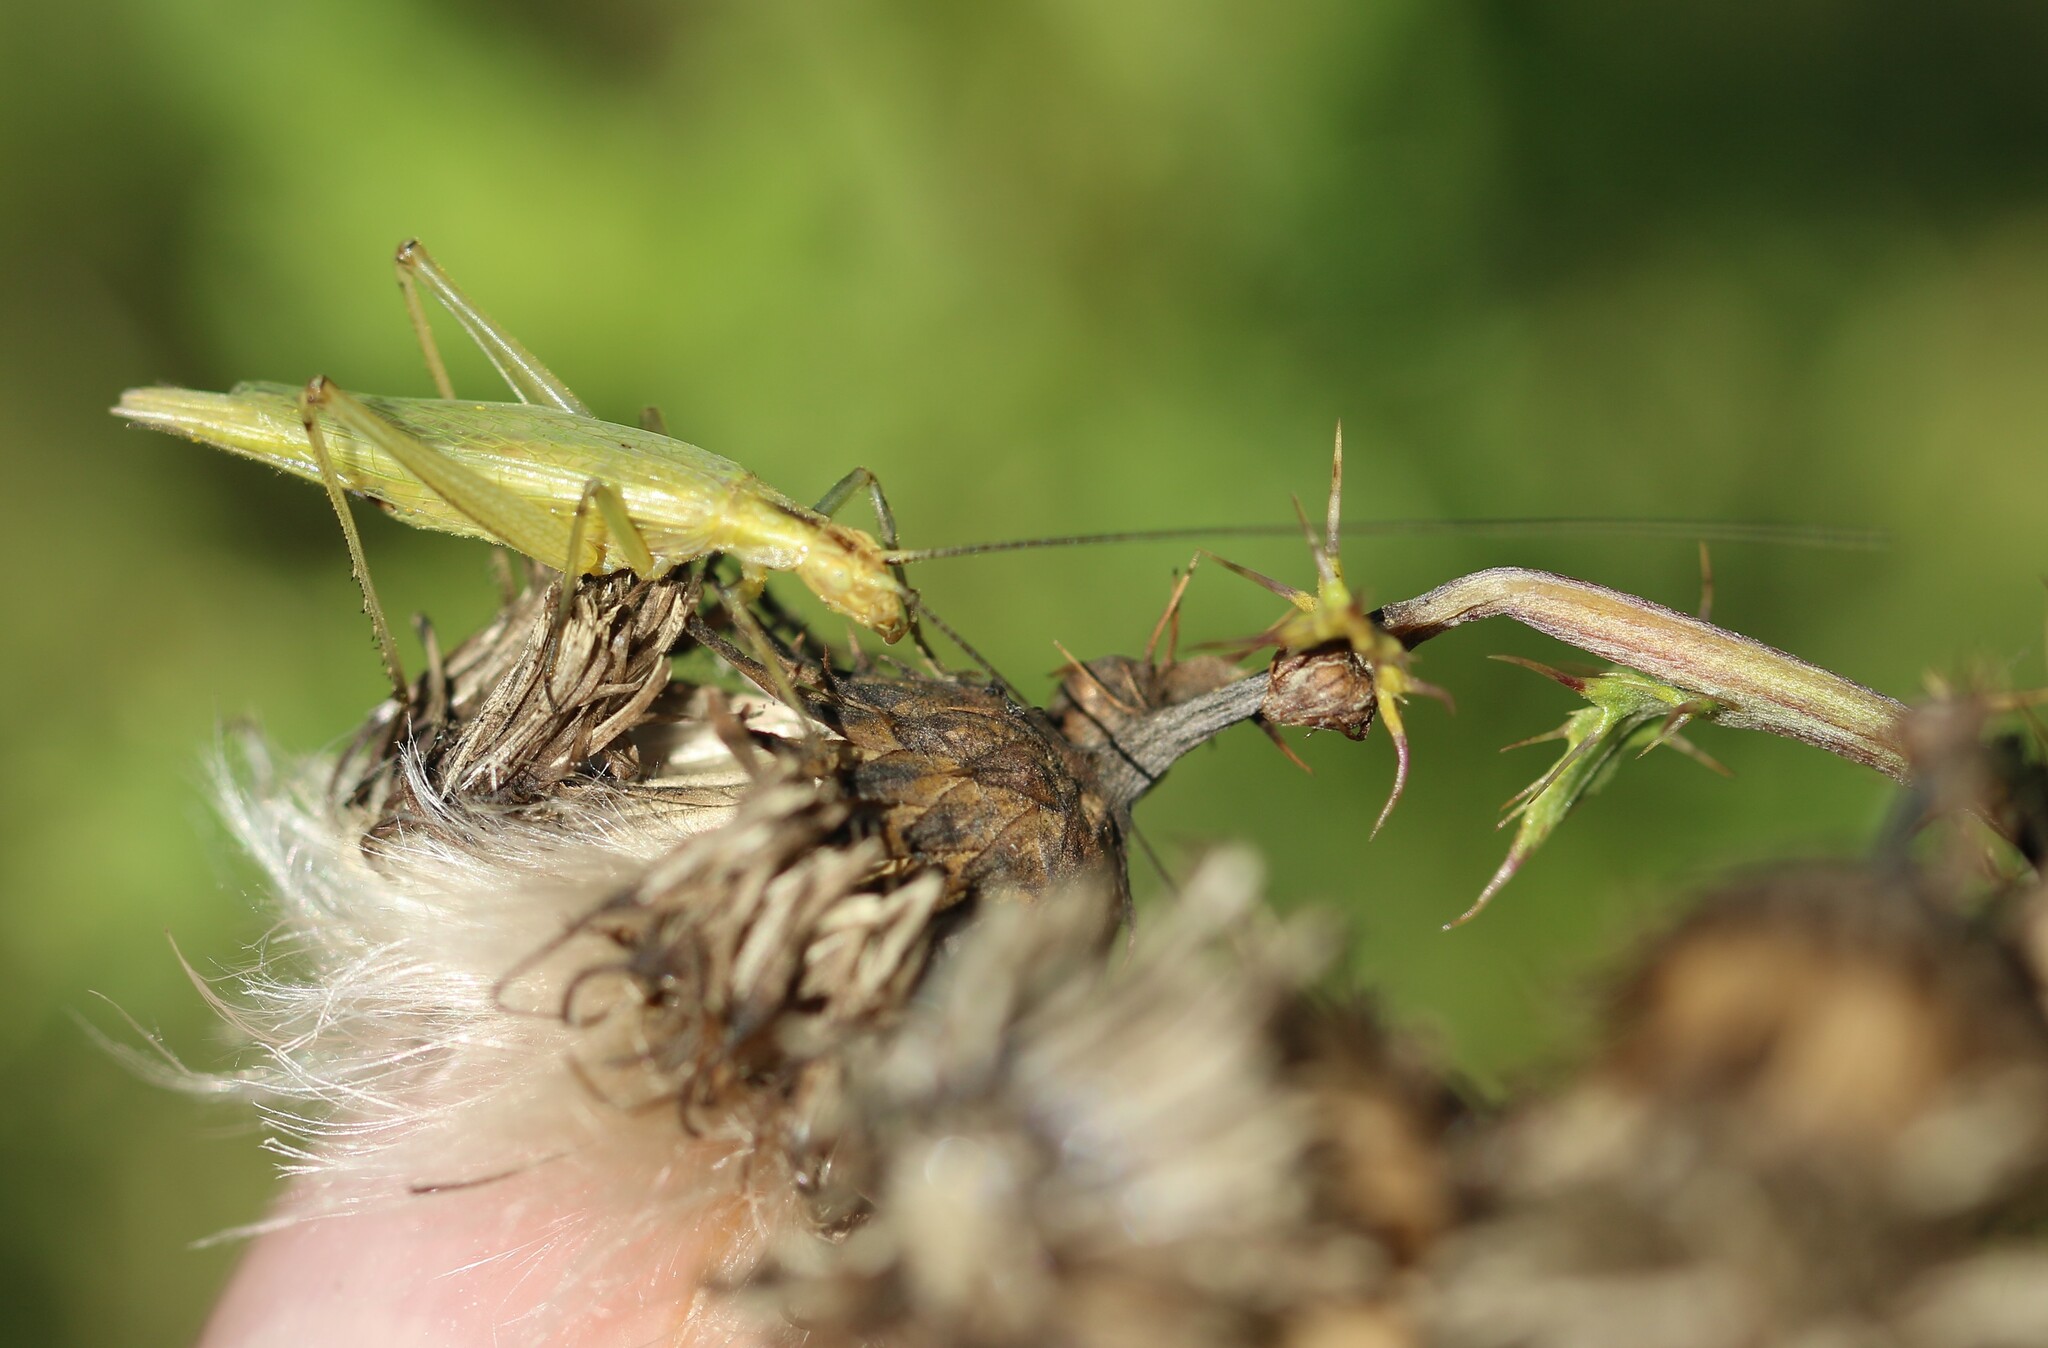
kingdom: Animalia
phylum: Arthropoda
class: Insecta
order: Orthoptera
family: Gryllidae
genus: Oecanthus
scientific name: Oecanthus nigricornis
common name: Black-horned tree cricket
